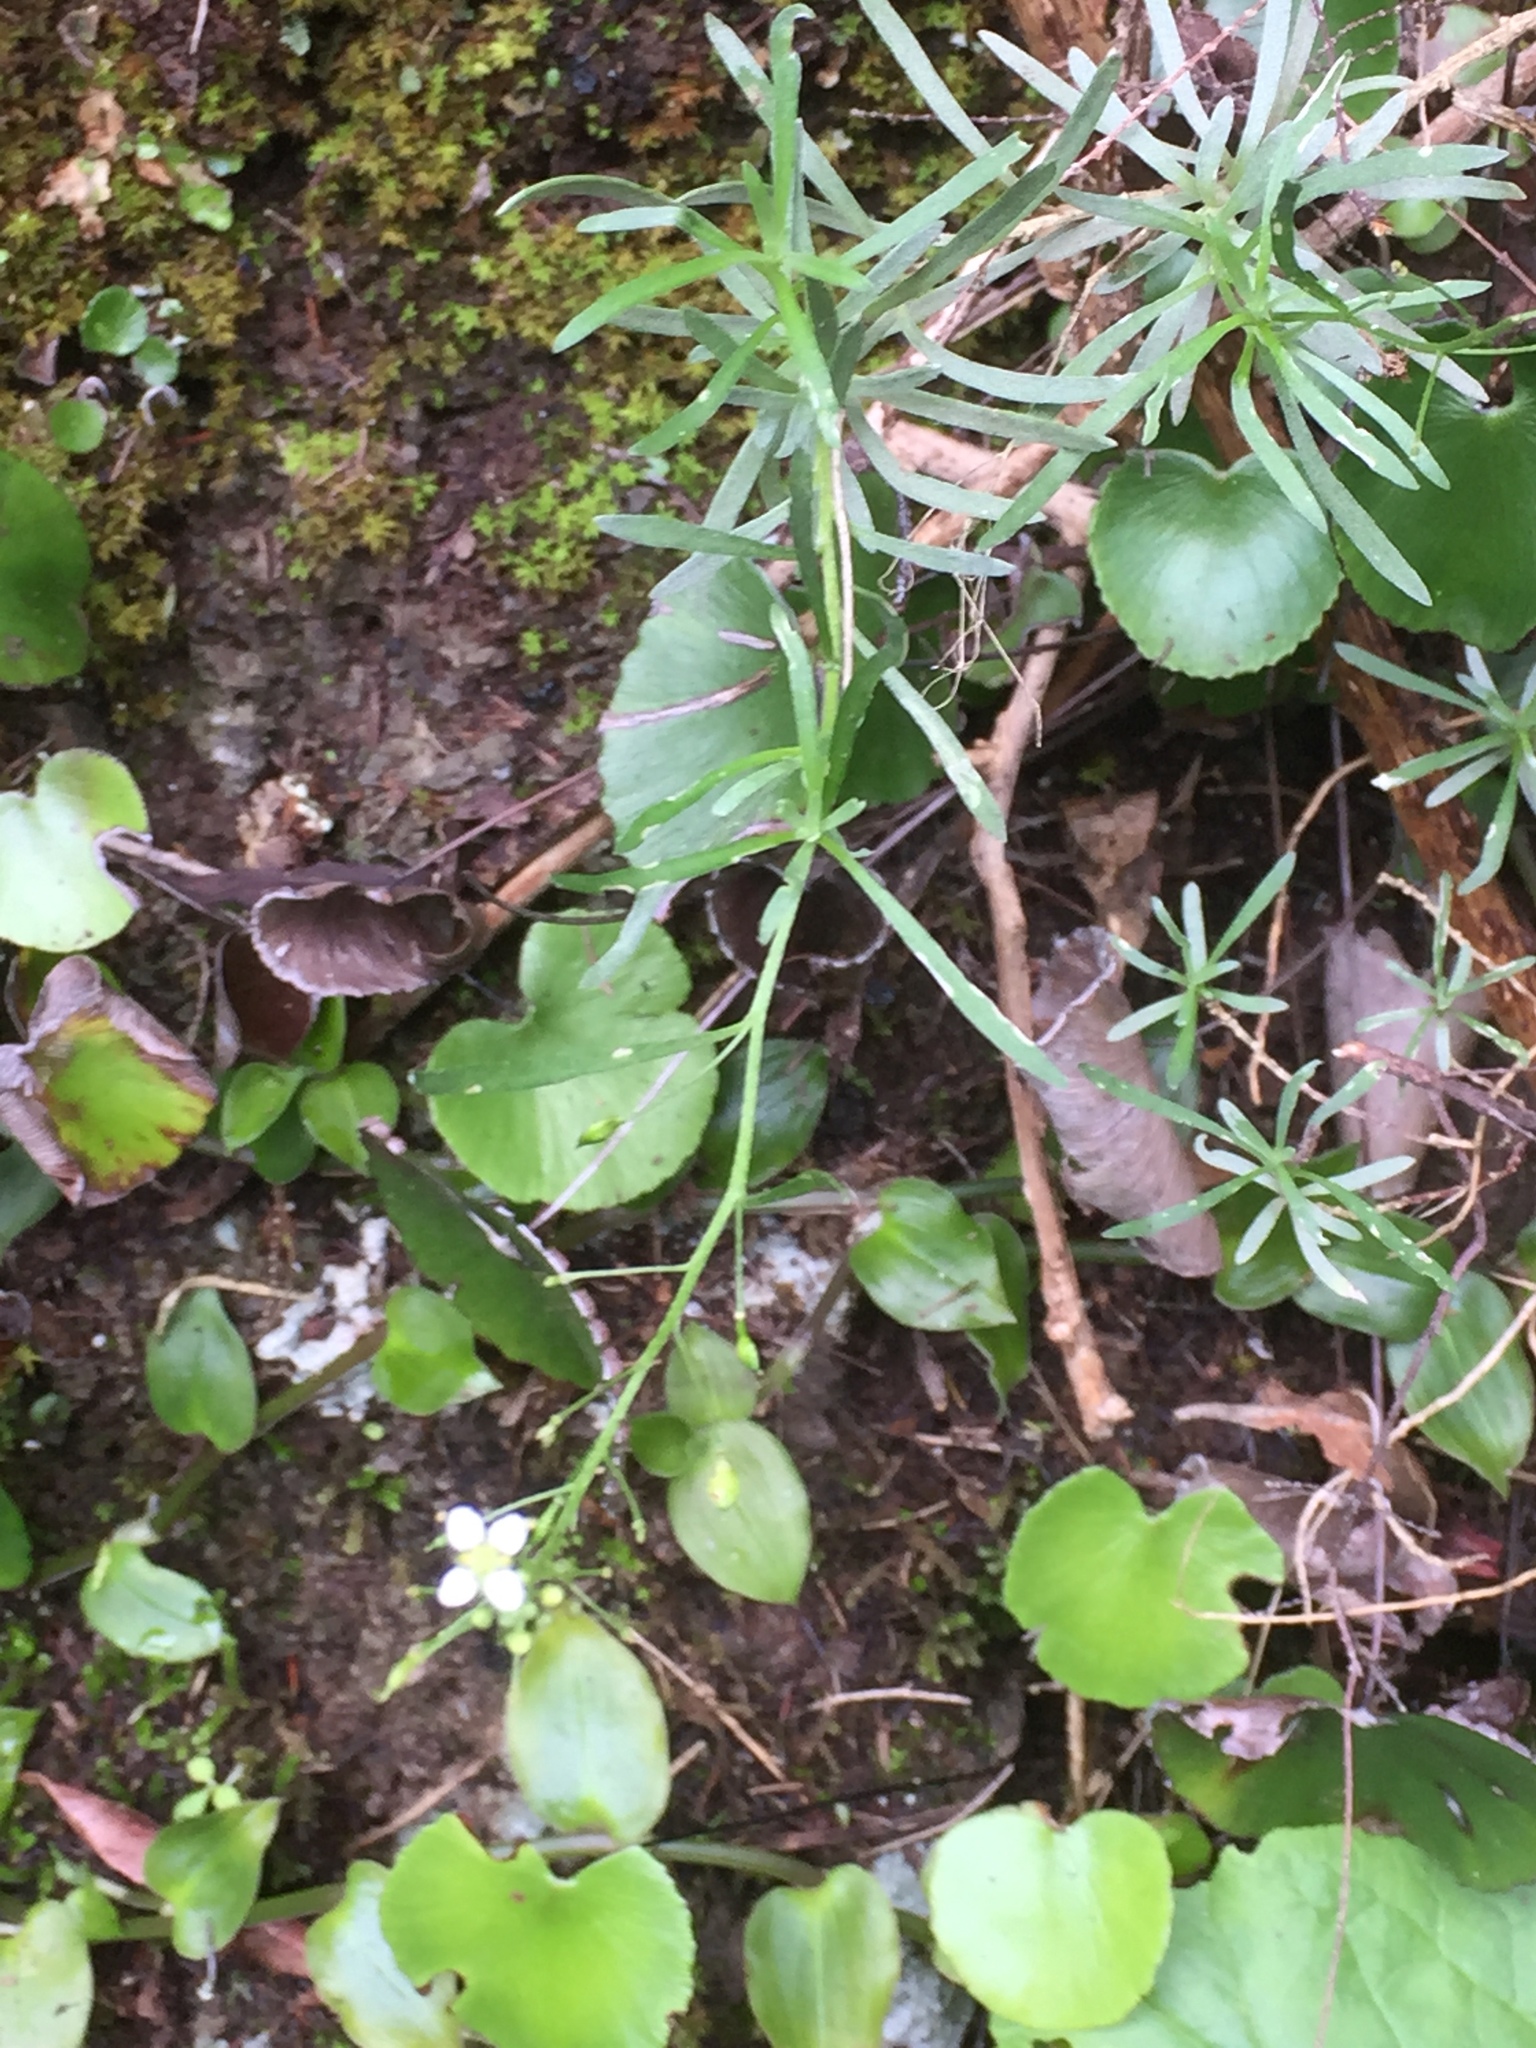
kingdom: Plantae
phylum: Tracheophyta
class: Polypodiopsida
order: Polypodiales
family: Pteridaceae
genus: Adiantum
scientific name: Adiantum reniforme
